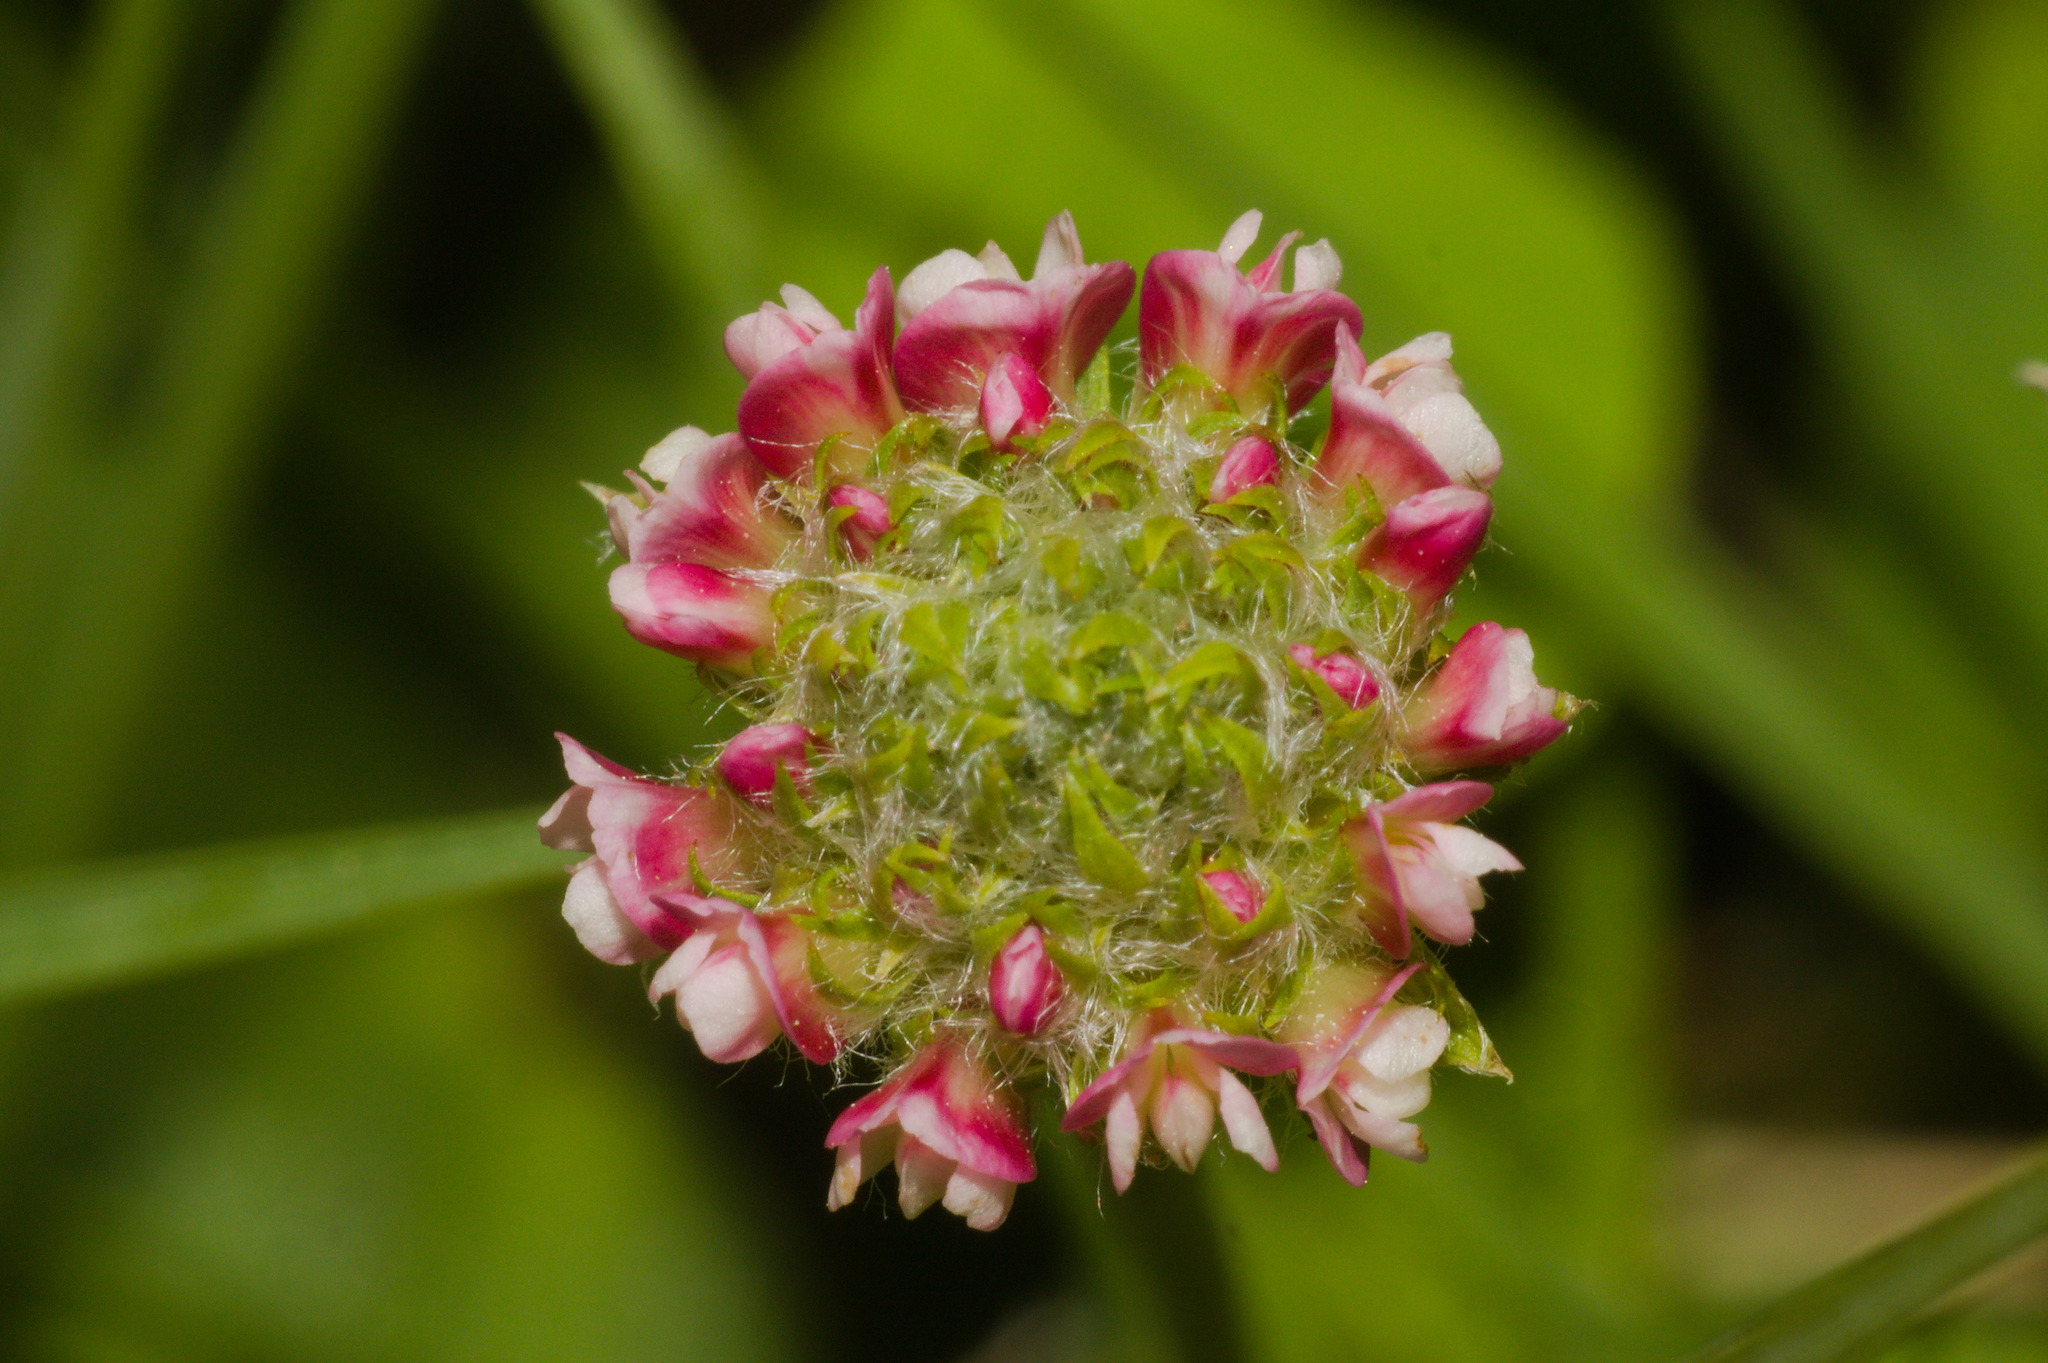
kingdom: Plantae
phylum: Tracheophyta
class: Magnoliopsida
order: Fabales
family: Fabaceae
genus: Trifolium
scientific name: Trifolium riograndense
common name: Rio grande clover
